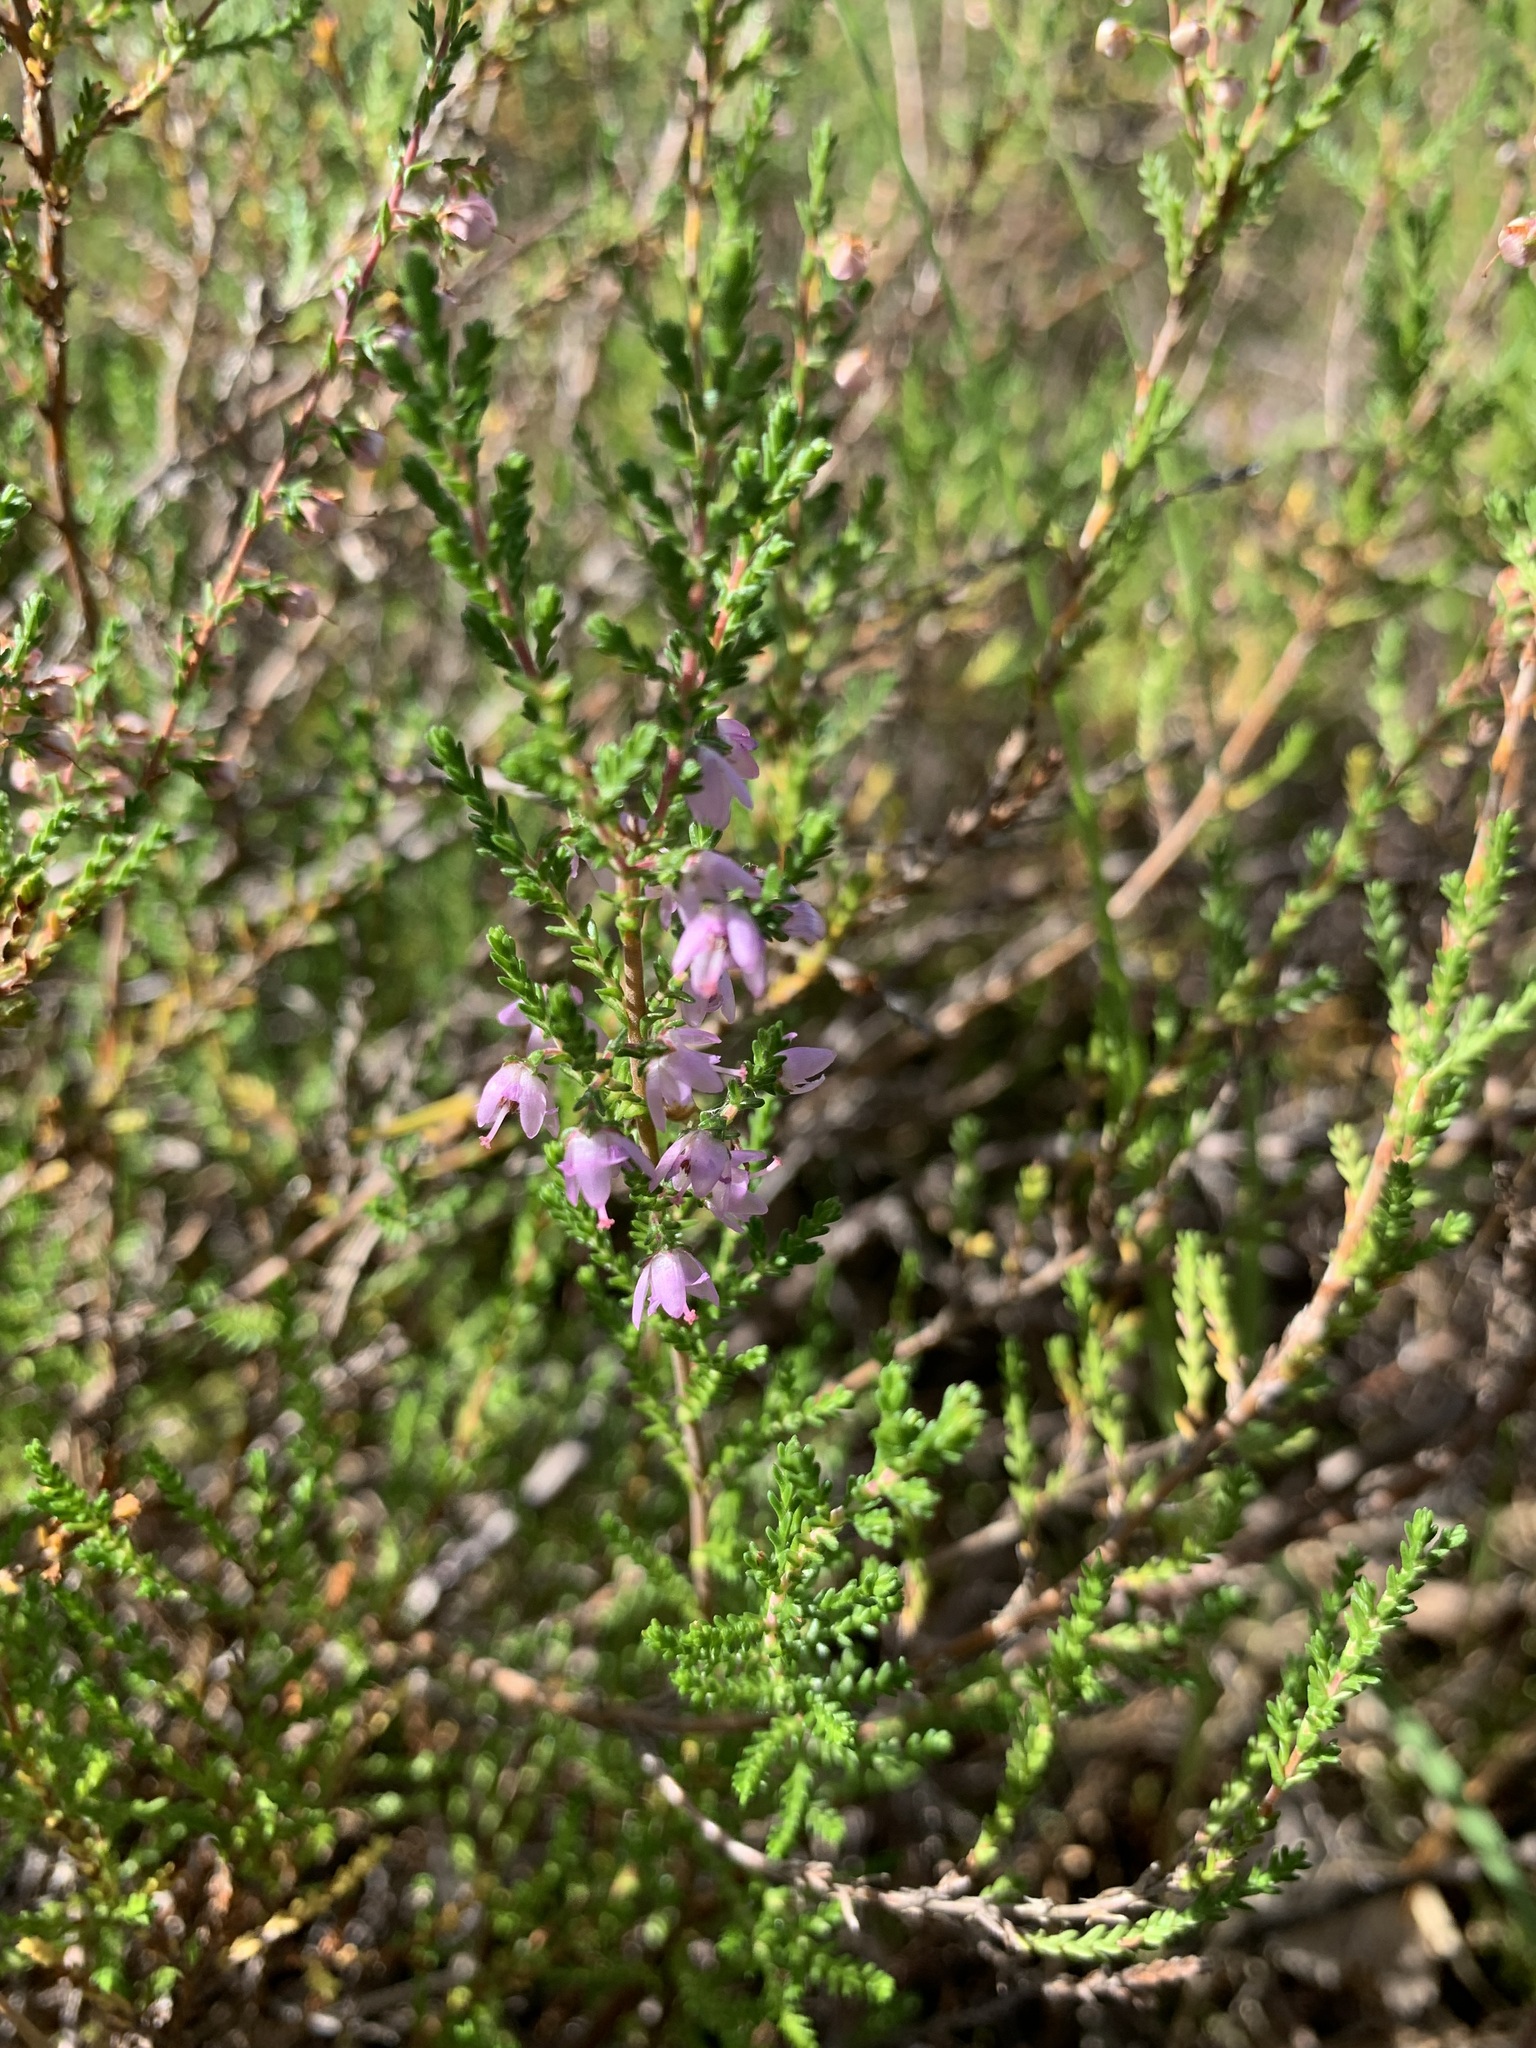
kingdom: Plantae
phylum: Tracheophyta
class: Magnoliopsida
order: Ericales
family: Ericaceae
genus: Calluna
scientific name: Calluna vulgaris
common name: Heather
